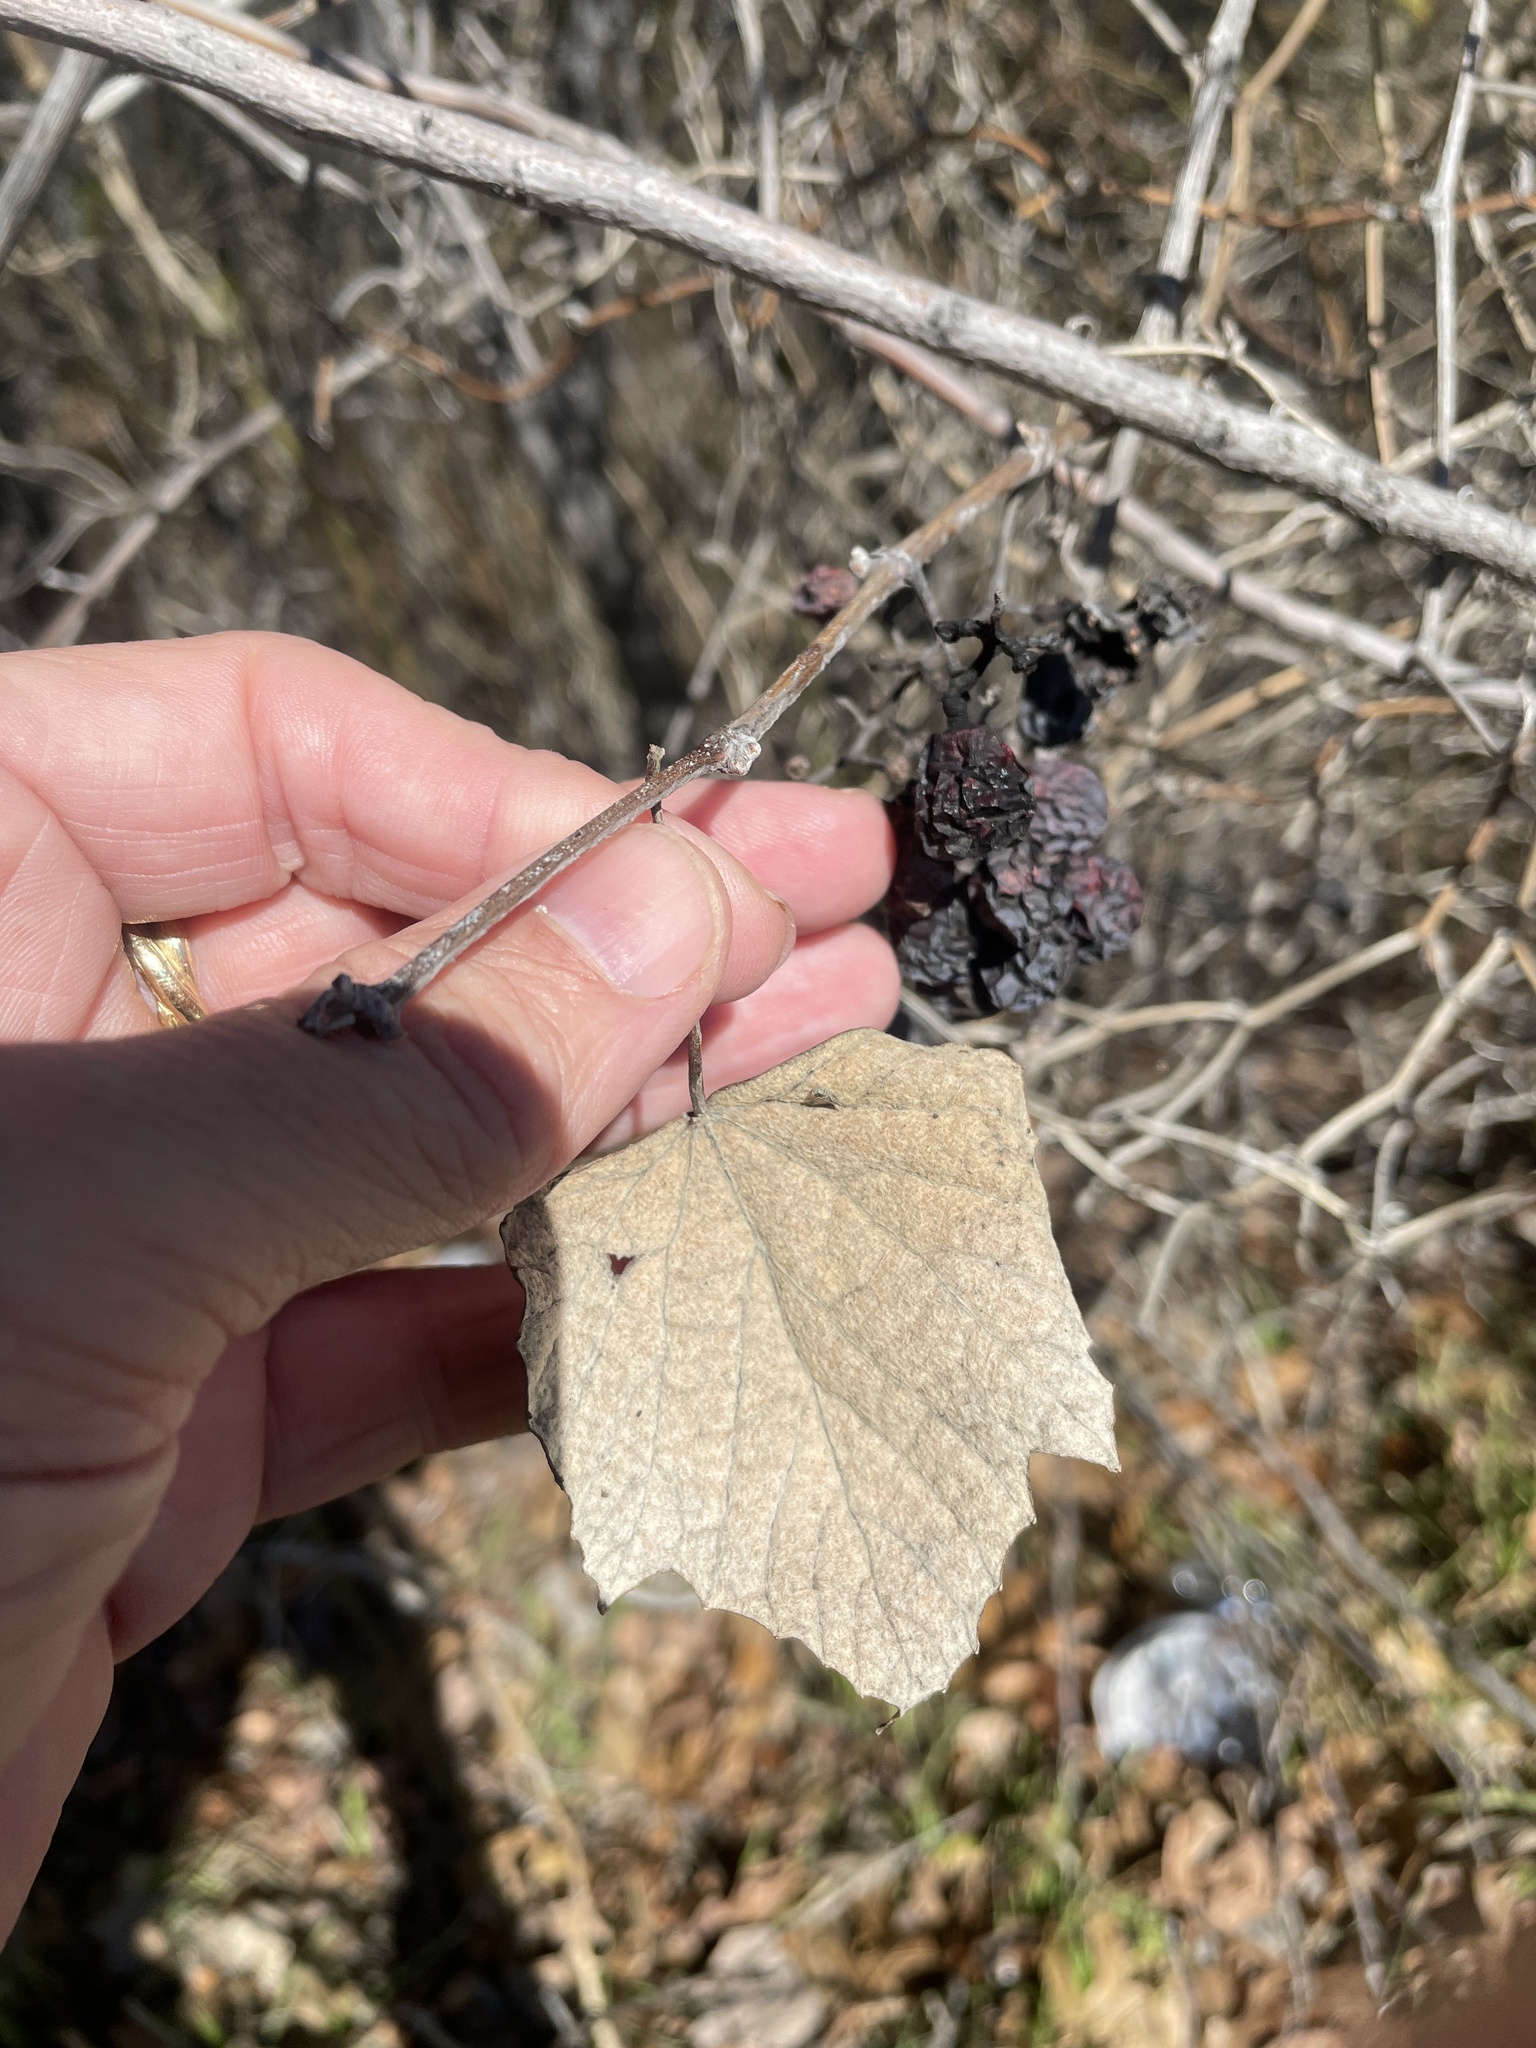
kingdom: Plantae
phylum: Tracheophyta
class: Magnoliopsida
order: Vitales
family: Vitaceae
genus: Vitis
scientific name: Vitis mustangensis
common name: Mustang grape
